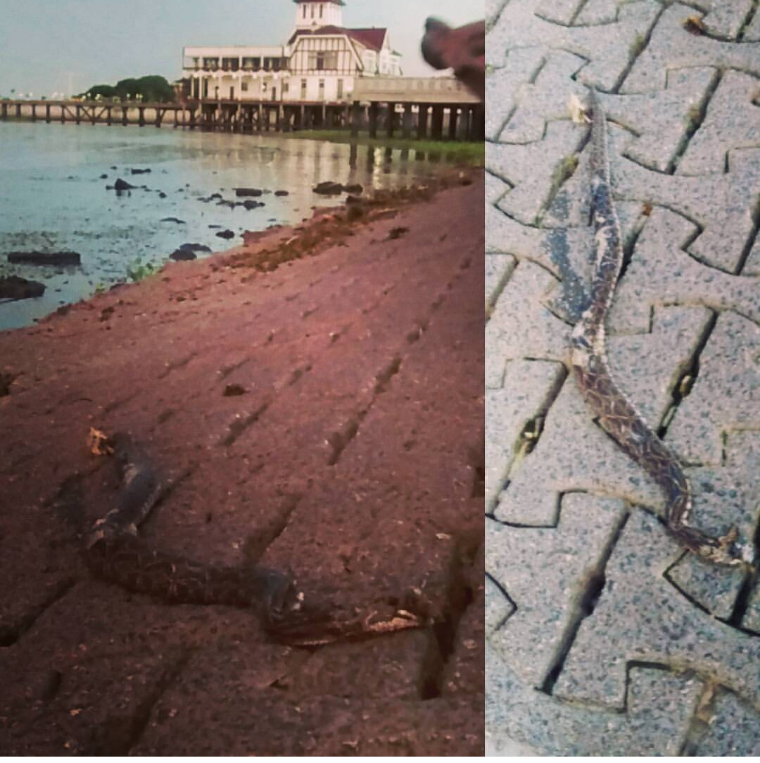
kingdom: Animalia
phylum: Chordata
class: Squamata
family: Viperidae
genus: Bothrops
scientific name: Bothrops alternatus
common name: Urutu
